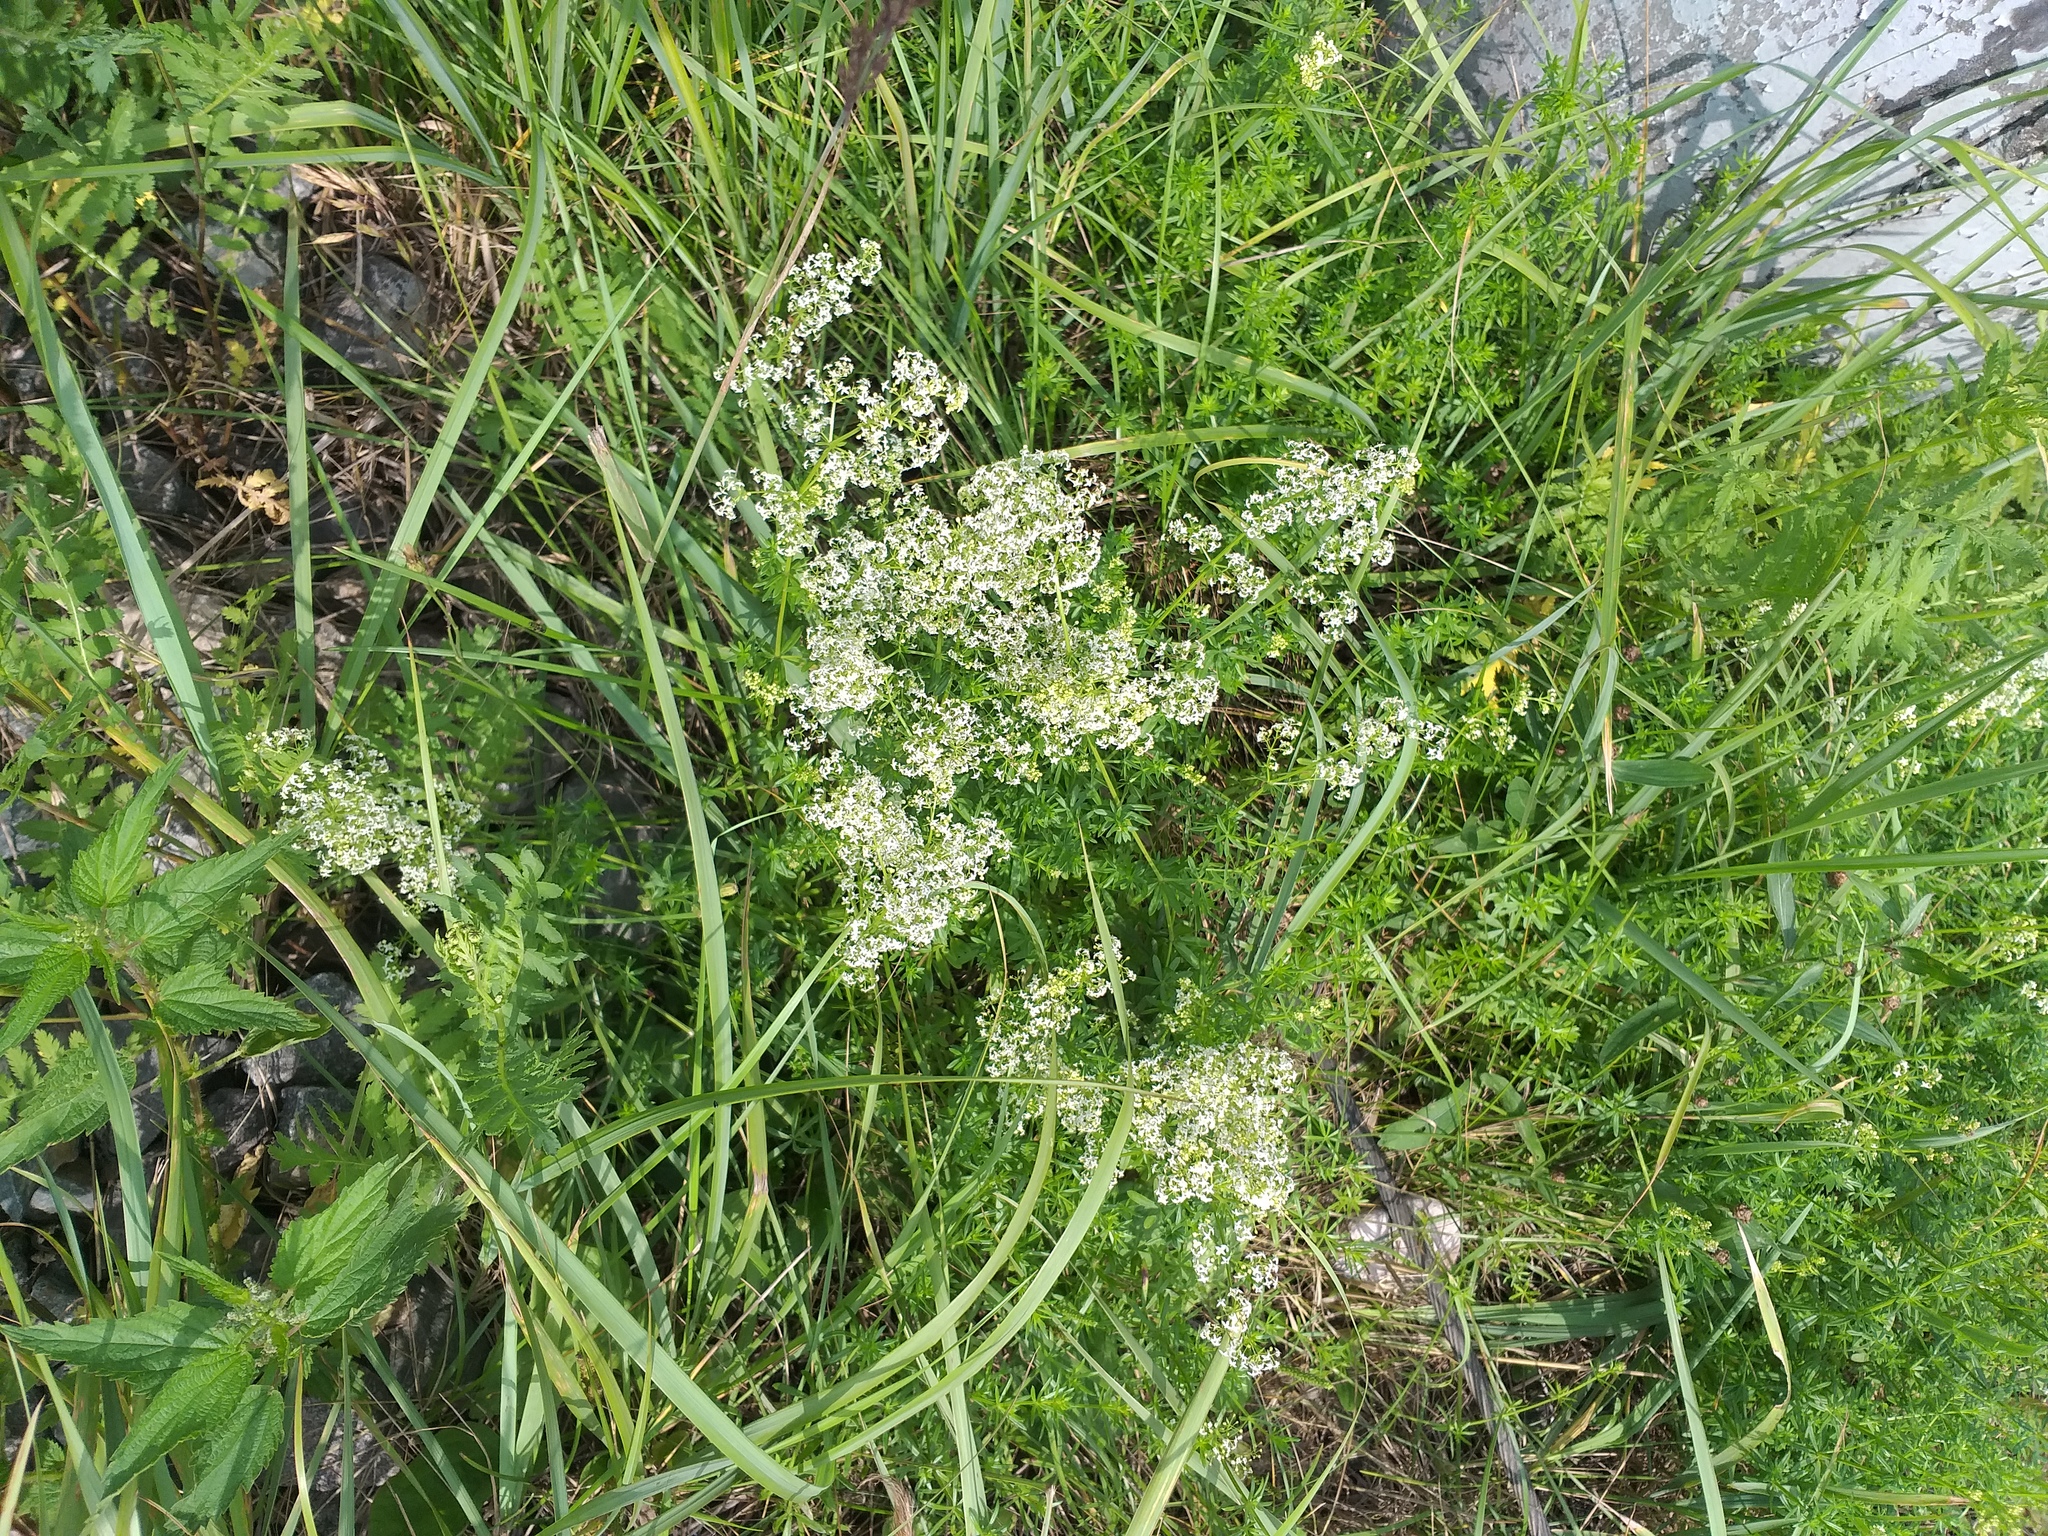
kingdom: Plantae
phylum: Tracheophyta
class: Magnoliopsida
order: Gentianales
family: Rubiaceae
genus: Galium
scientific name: Galium mollugo
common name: Hedge bedstraw
